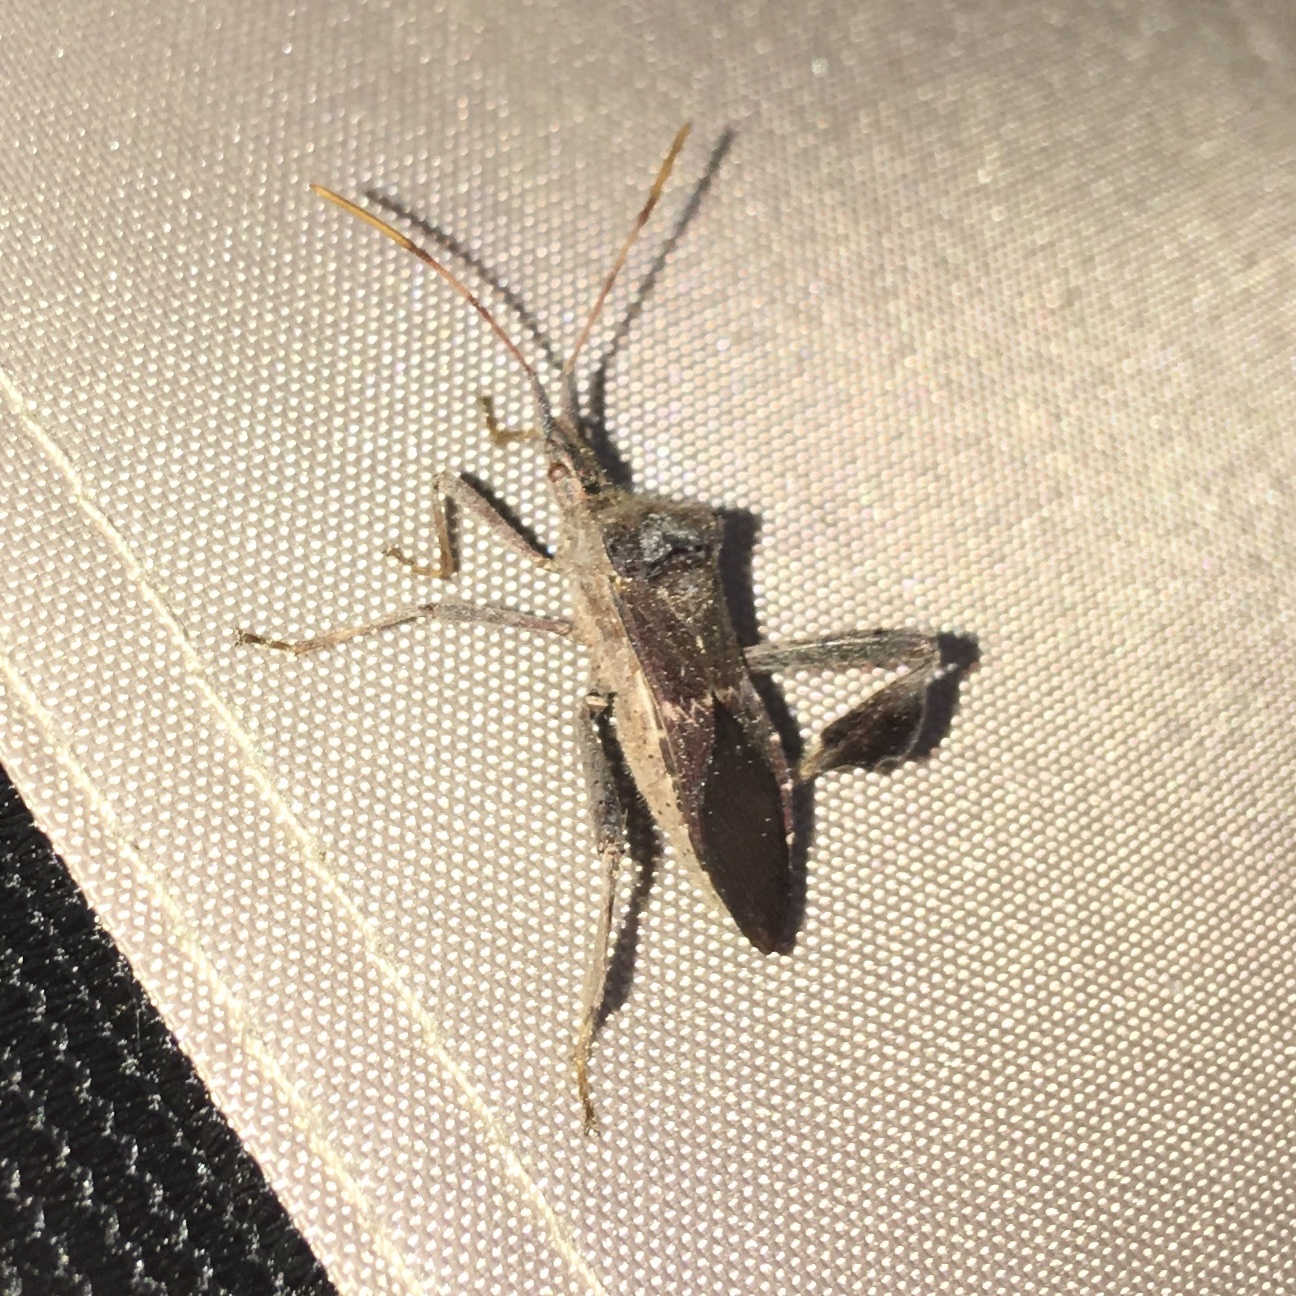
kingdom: Animalia
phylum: Arthropoda
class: Insecta
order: Hemiptera
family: Coreidae
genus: Leptoglossus
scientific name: Leptoglossus zonatus
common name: Large-legged bug
